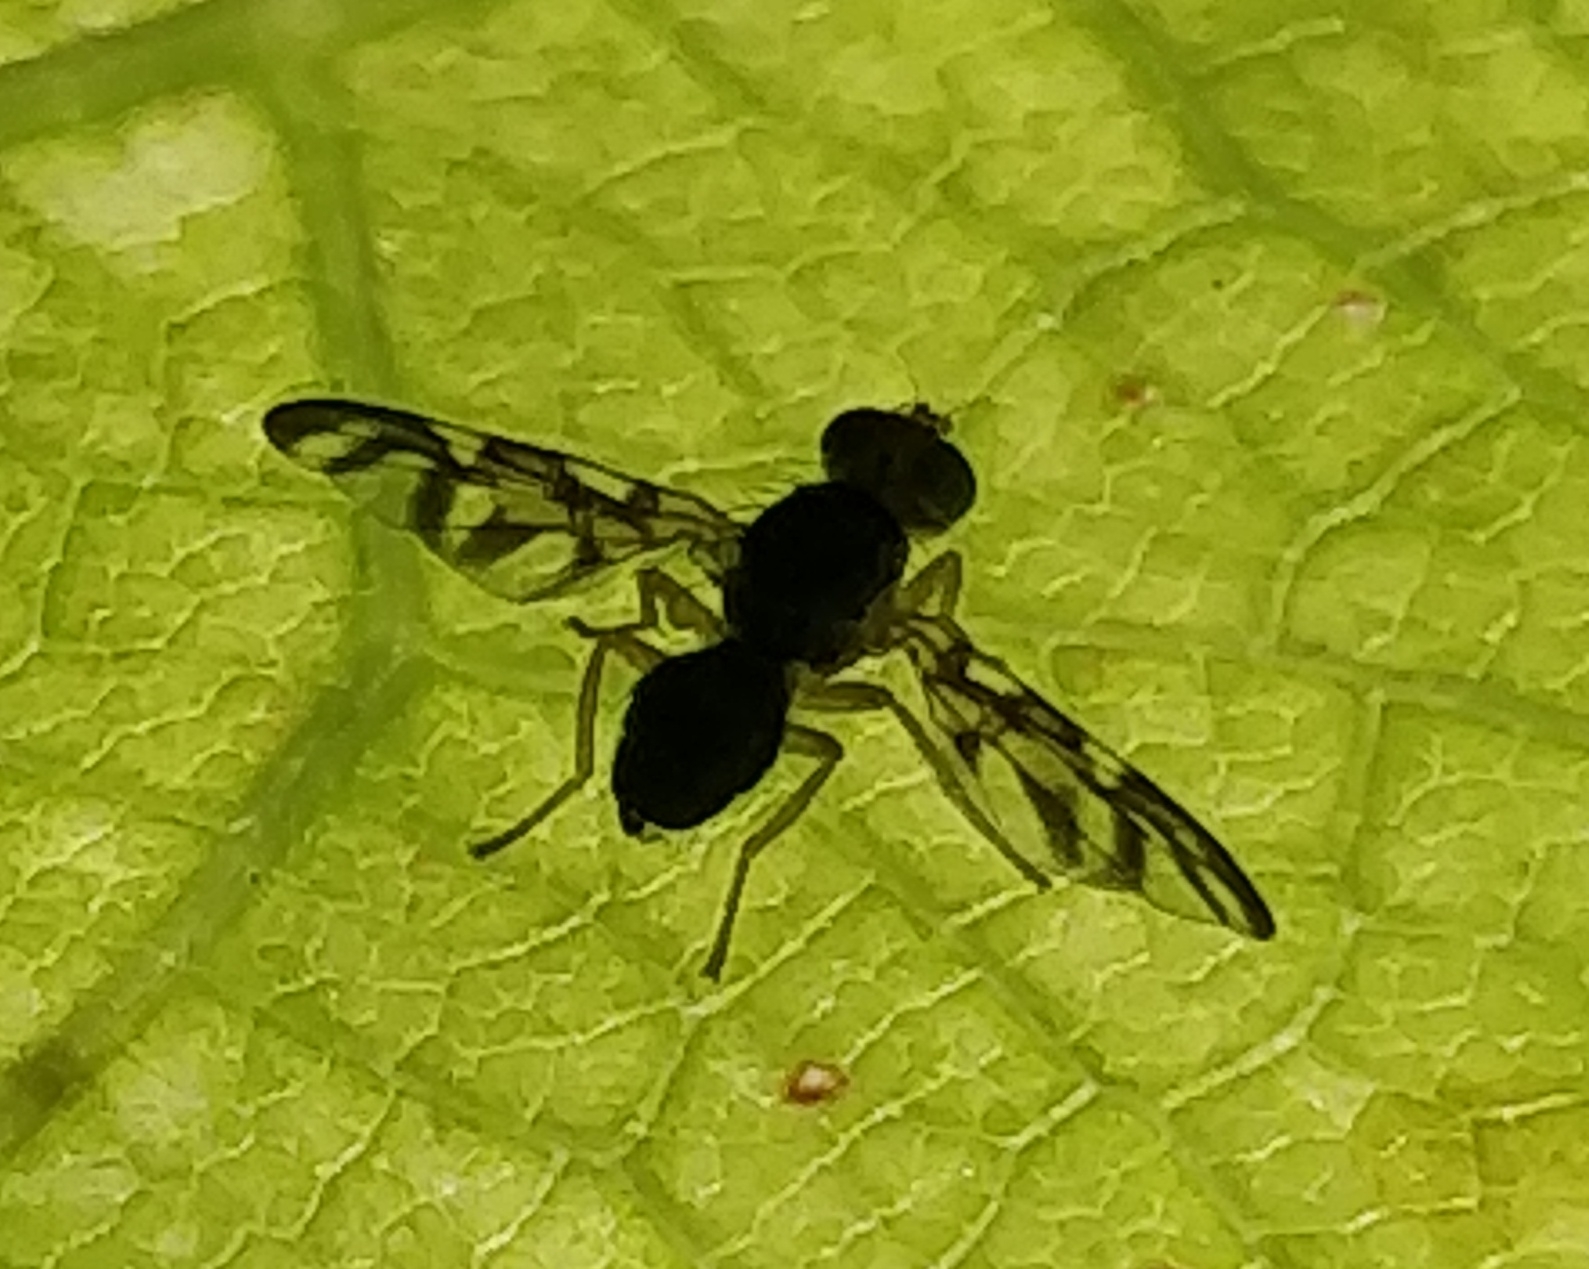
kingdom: Animalia
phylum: Arthropoda
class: Insecta
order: Diptera
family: Tephritidae
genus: Euleia
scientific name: Euleia separata
